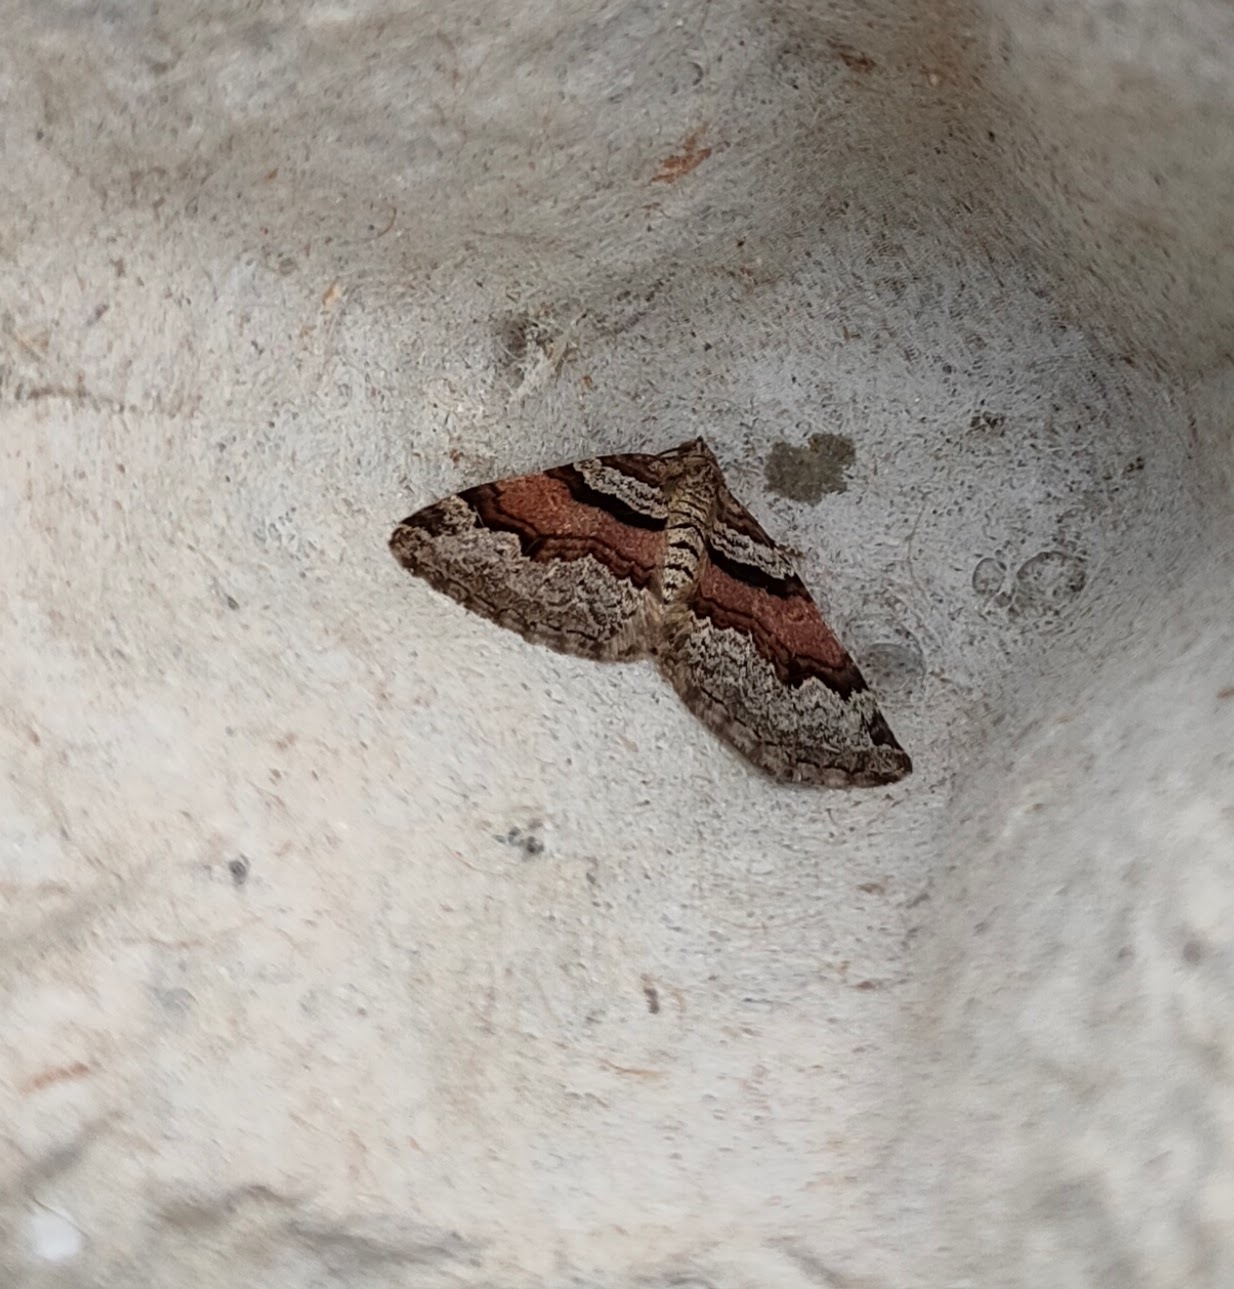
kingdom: Animalia
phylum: Arthropoda
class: Insecta
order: Lepidoptera
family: Geometridae
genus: Xanthorhoe
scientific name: Xanthorhoe designata
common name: Flame carpet
